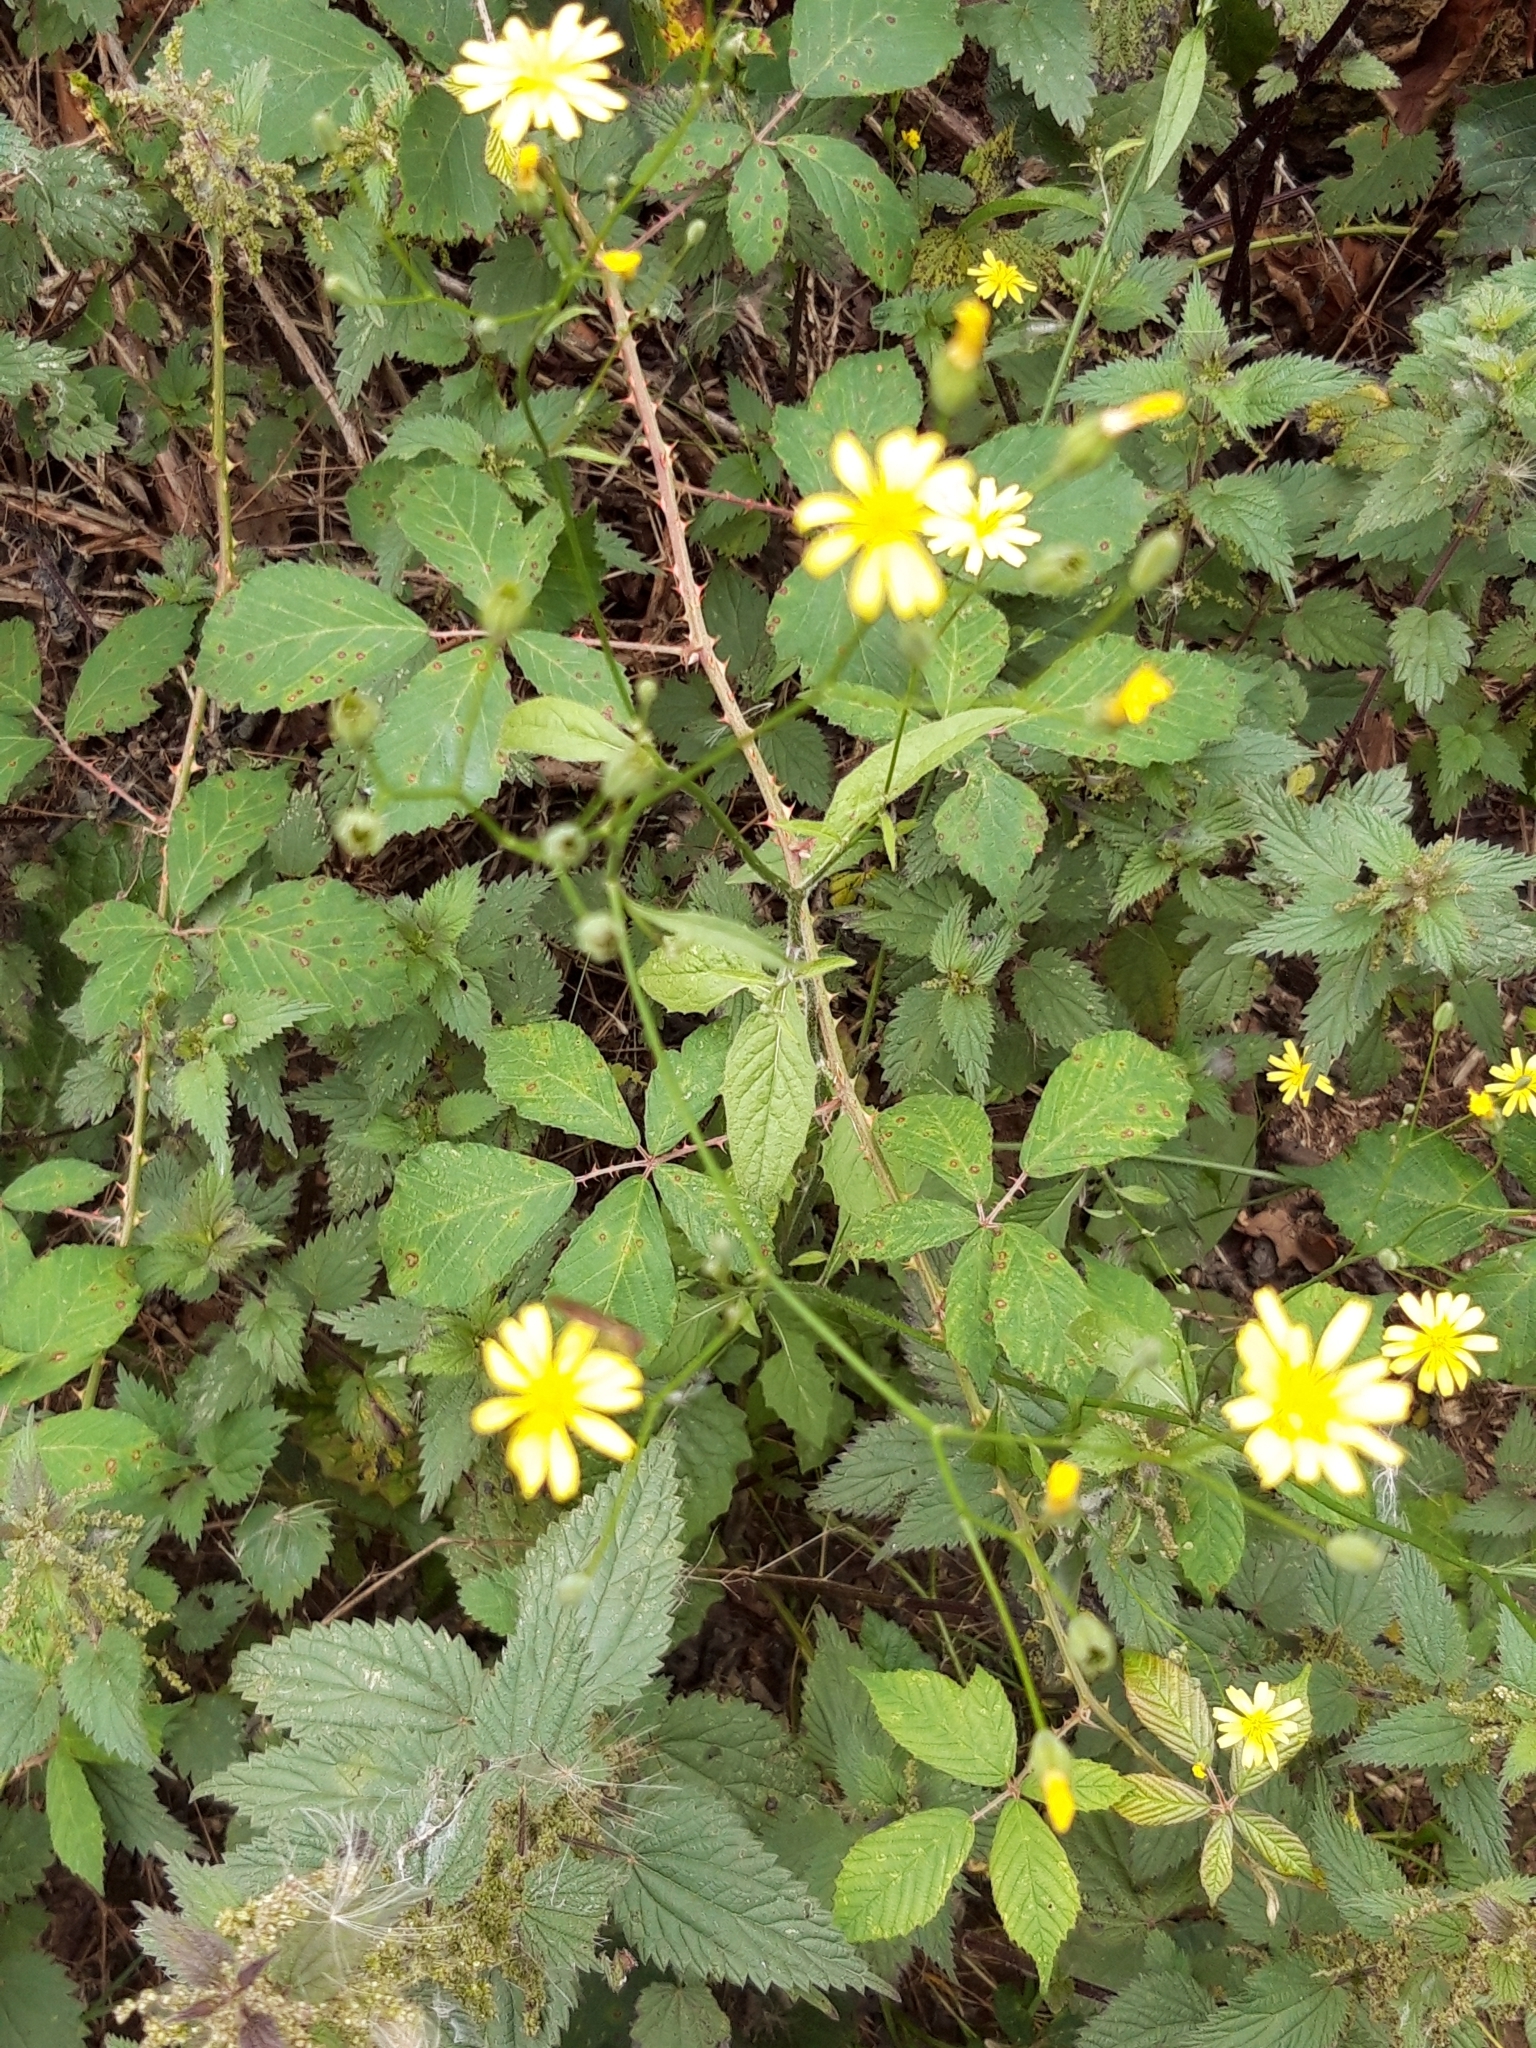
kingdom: Plantae
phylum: Tracheophyta
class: Magnoliopsida
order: Asterales
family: Asteraceae
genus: Lapsana
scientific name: Lapsana communis
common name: Nipplewort
